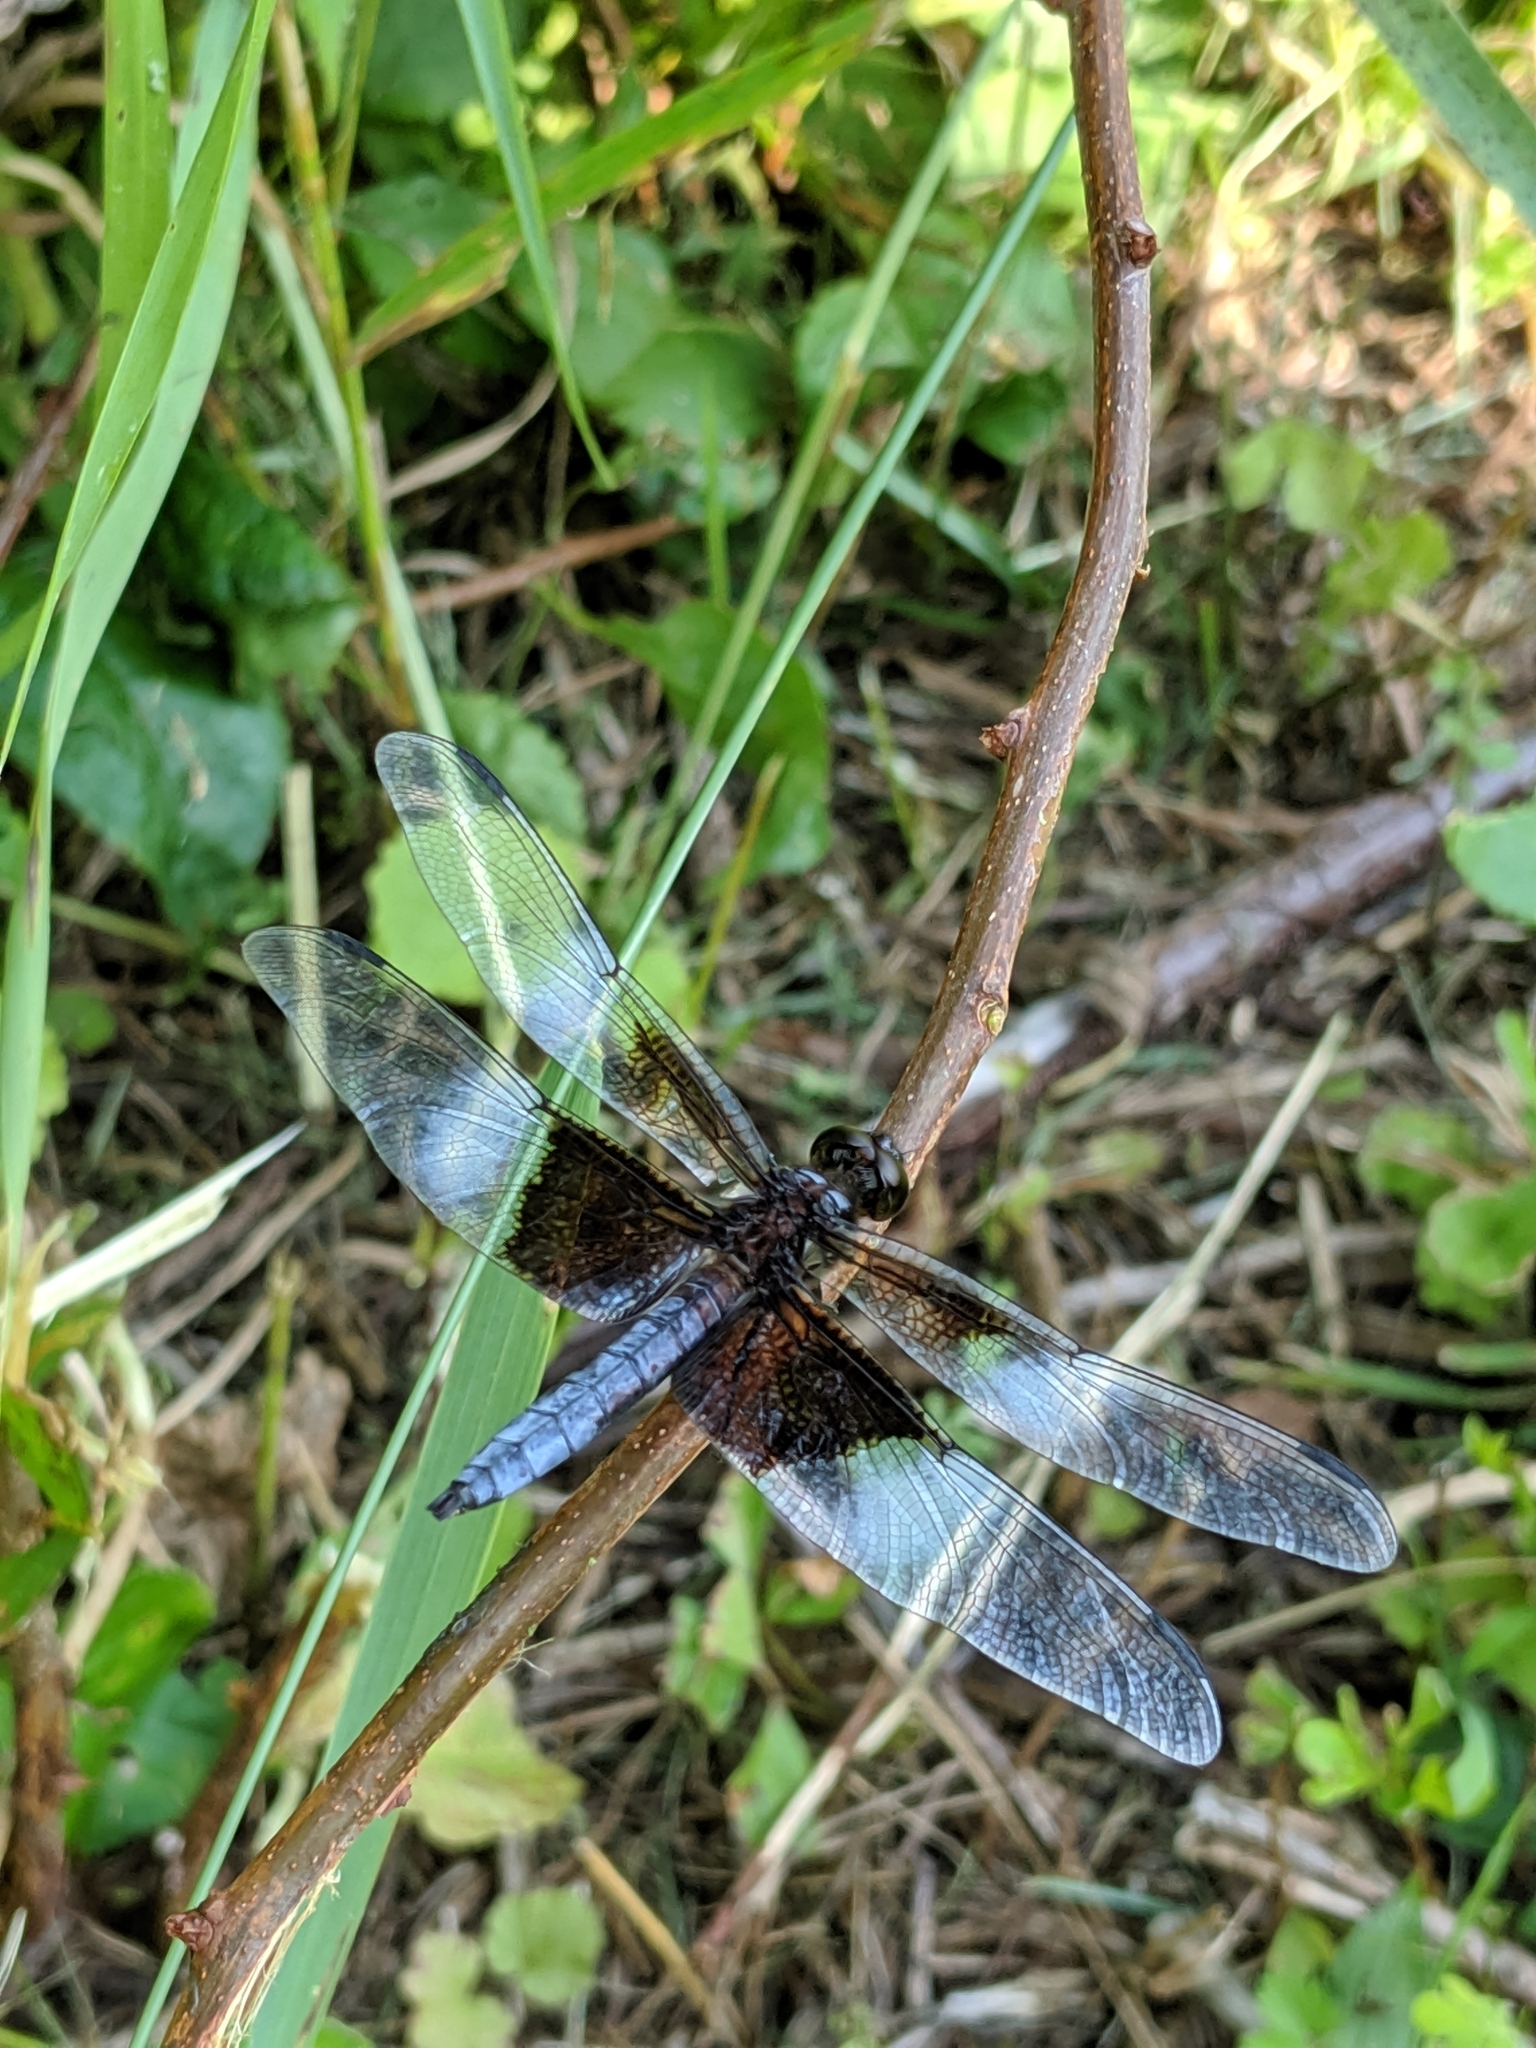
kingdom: Animalia
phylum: Arthropoda
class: Insecta
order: Odonata
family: Libellulidae
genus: Libellula
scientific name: Libellula luctuosa
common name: Widow skimmer
